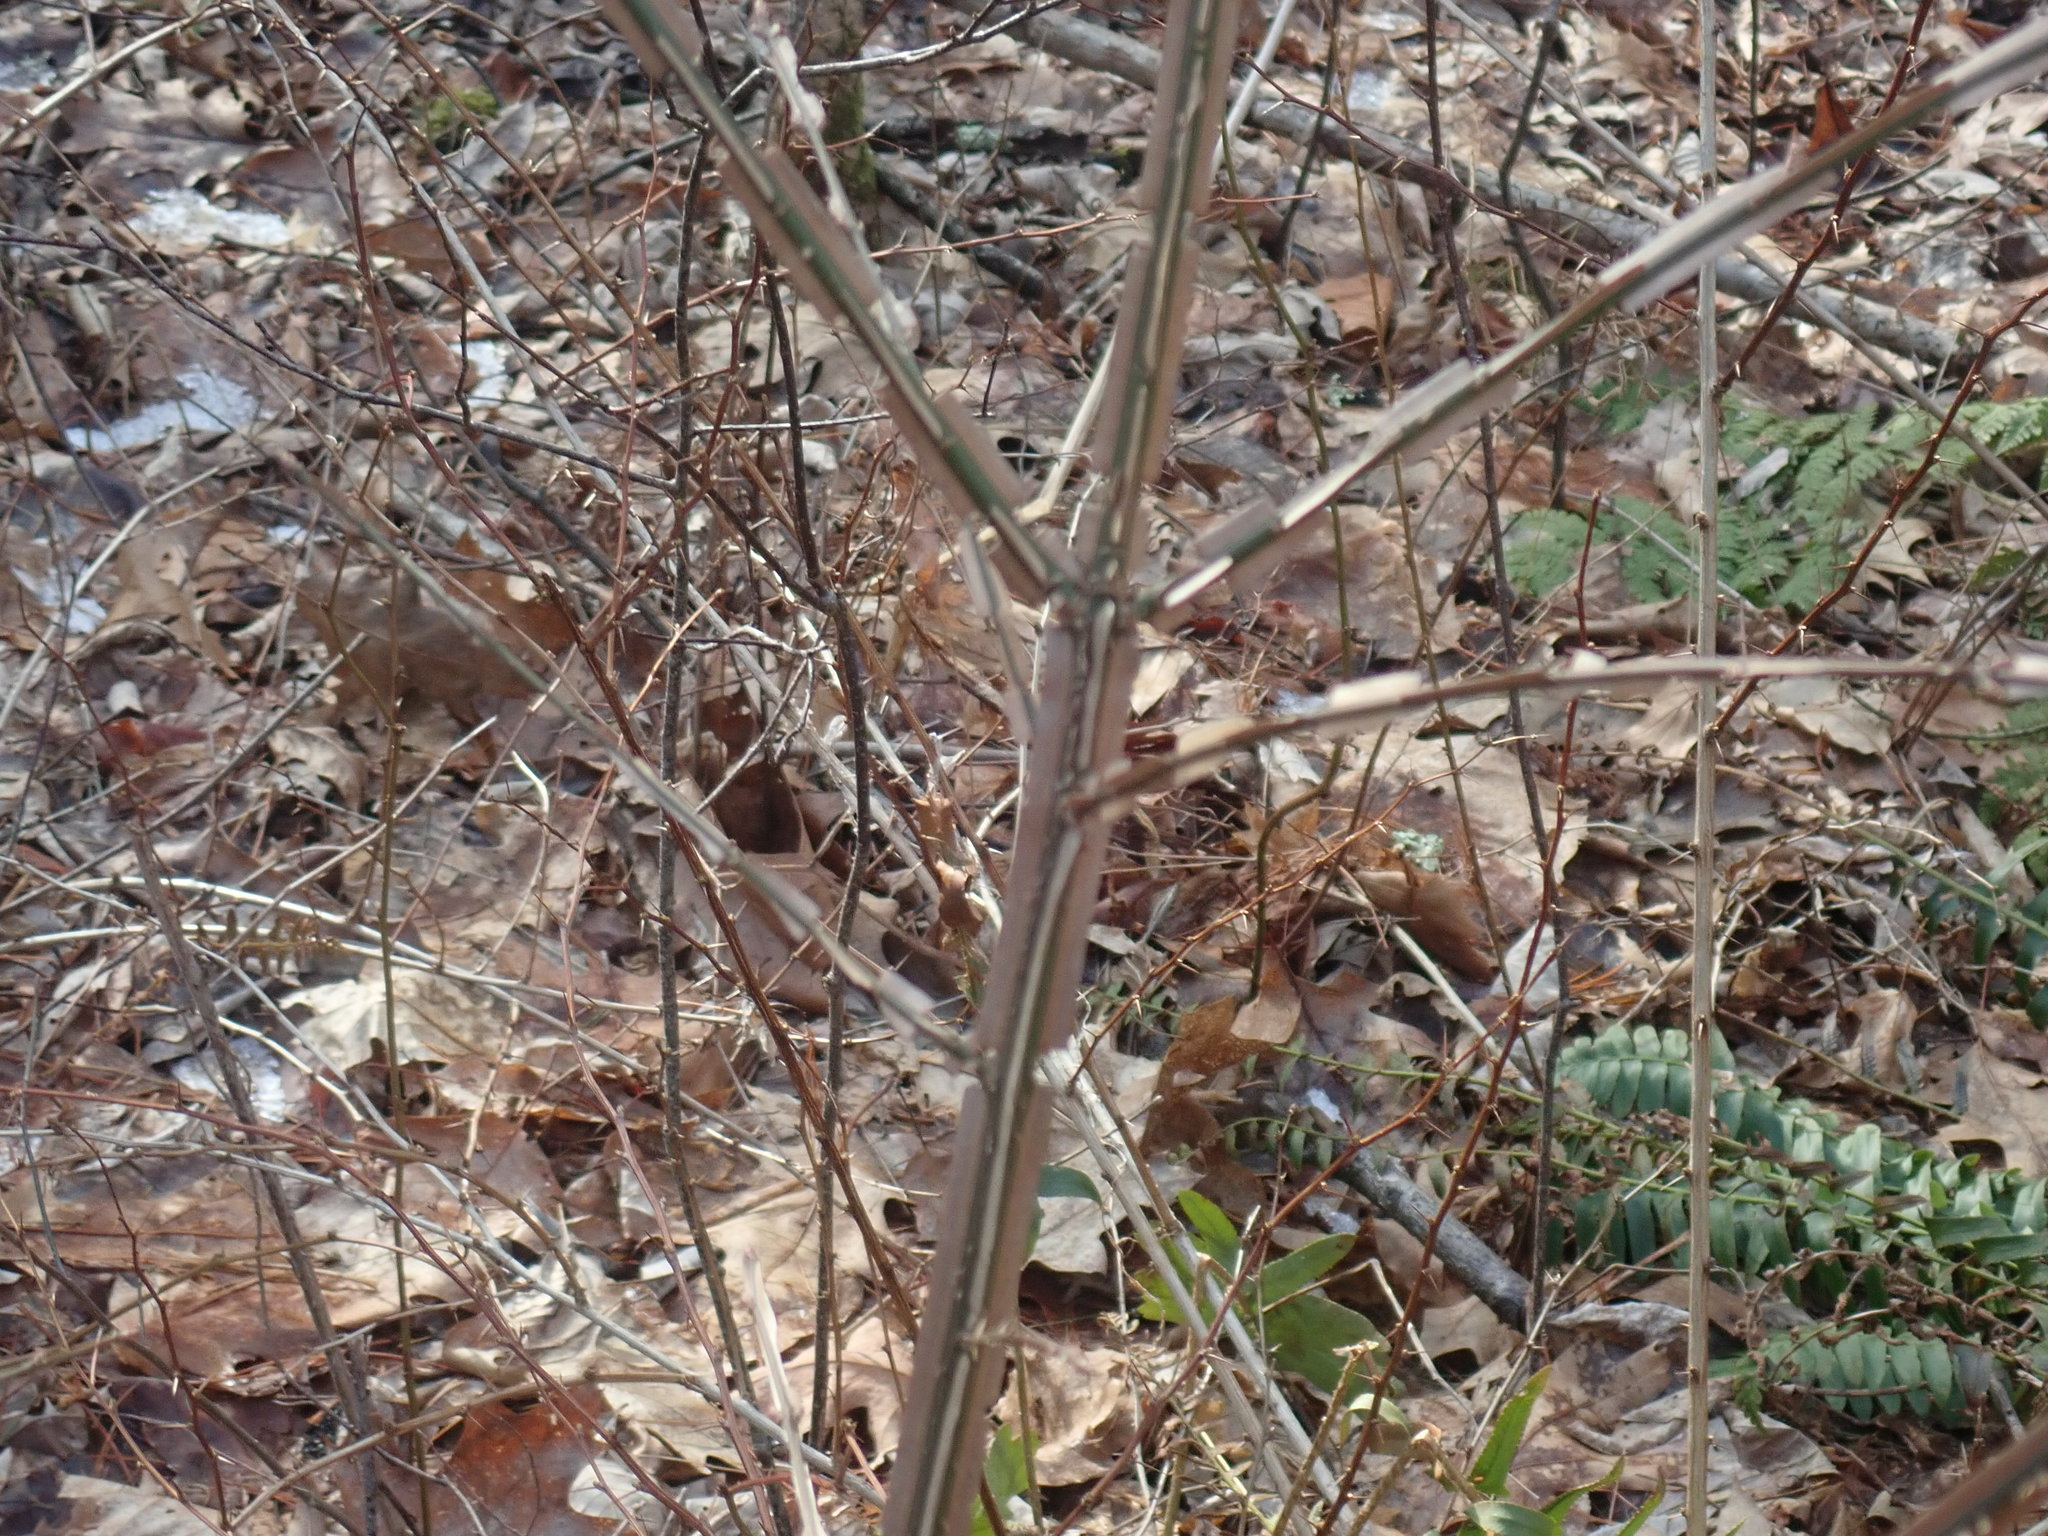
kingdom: Plantae
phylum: Tracheophyta
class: Magnoliopsida
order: Celastrales
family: Celastraceae
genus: Euonymus
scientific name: Euonymus alatus
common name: Winged euonymus
